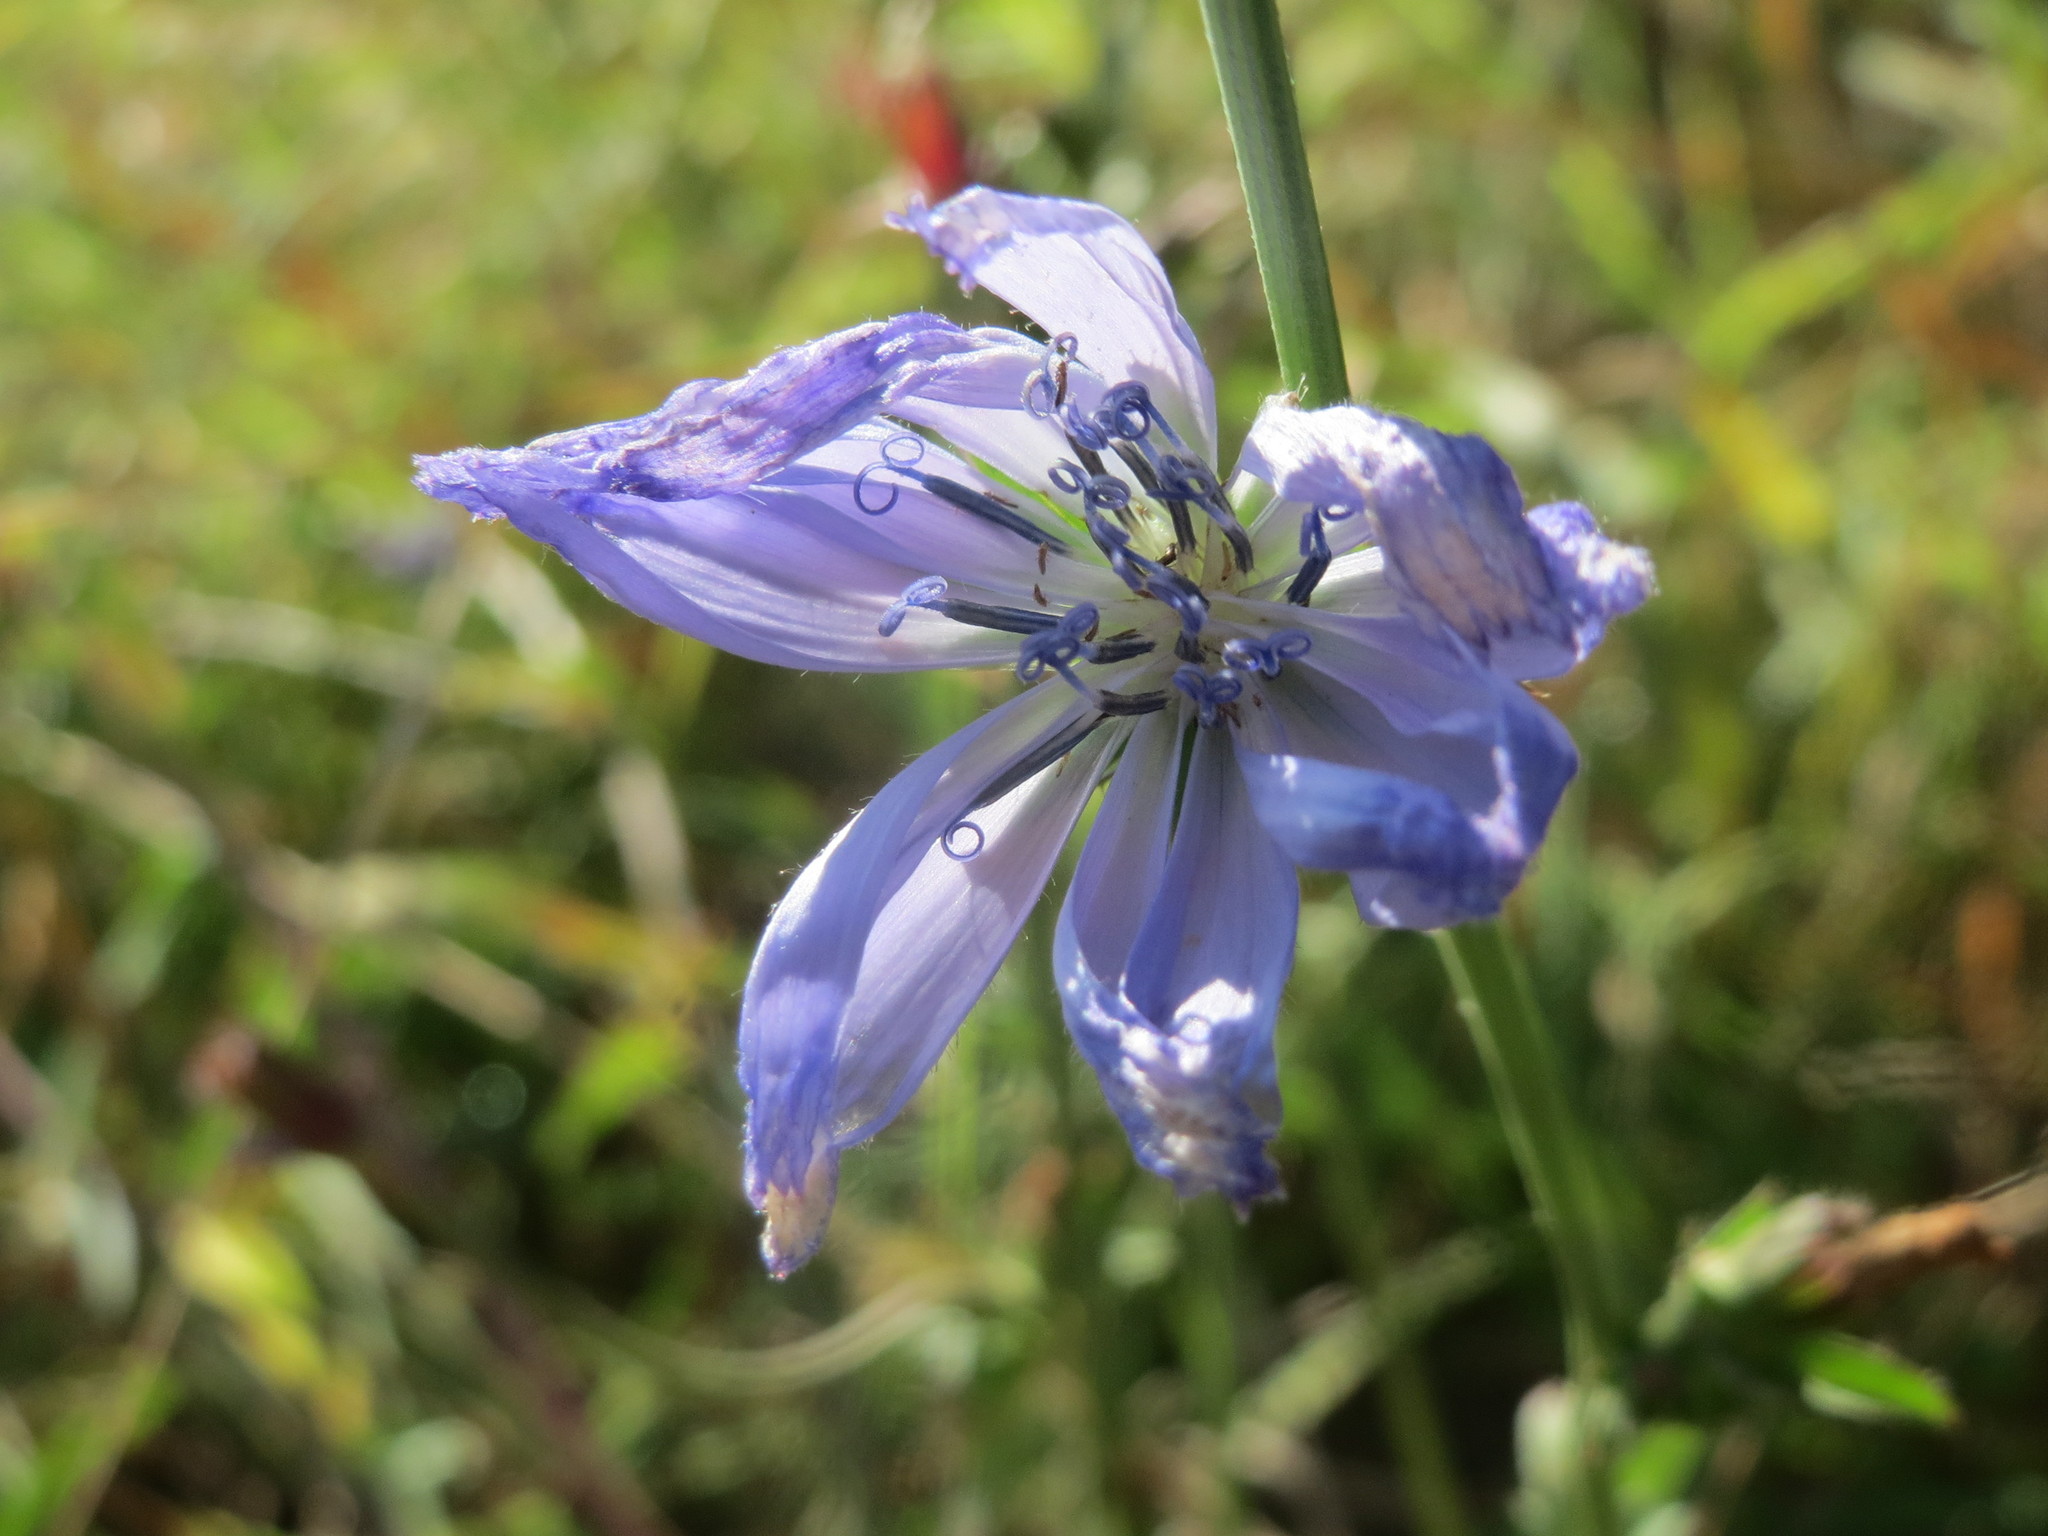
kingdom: Plantae
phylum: Tracheophyta
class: Magnoliopsida
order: Asterales
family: Asteraceae
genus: Cichorium
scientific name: Cichorium intybus
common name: Chicory
